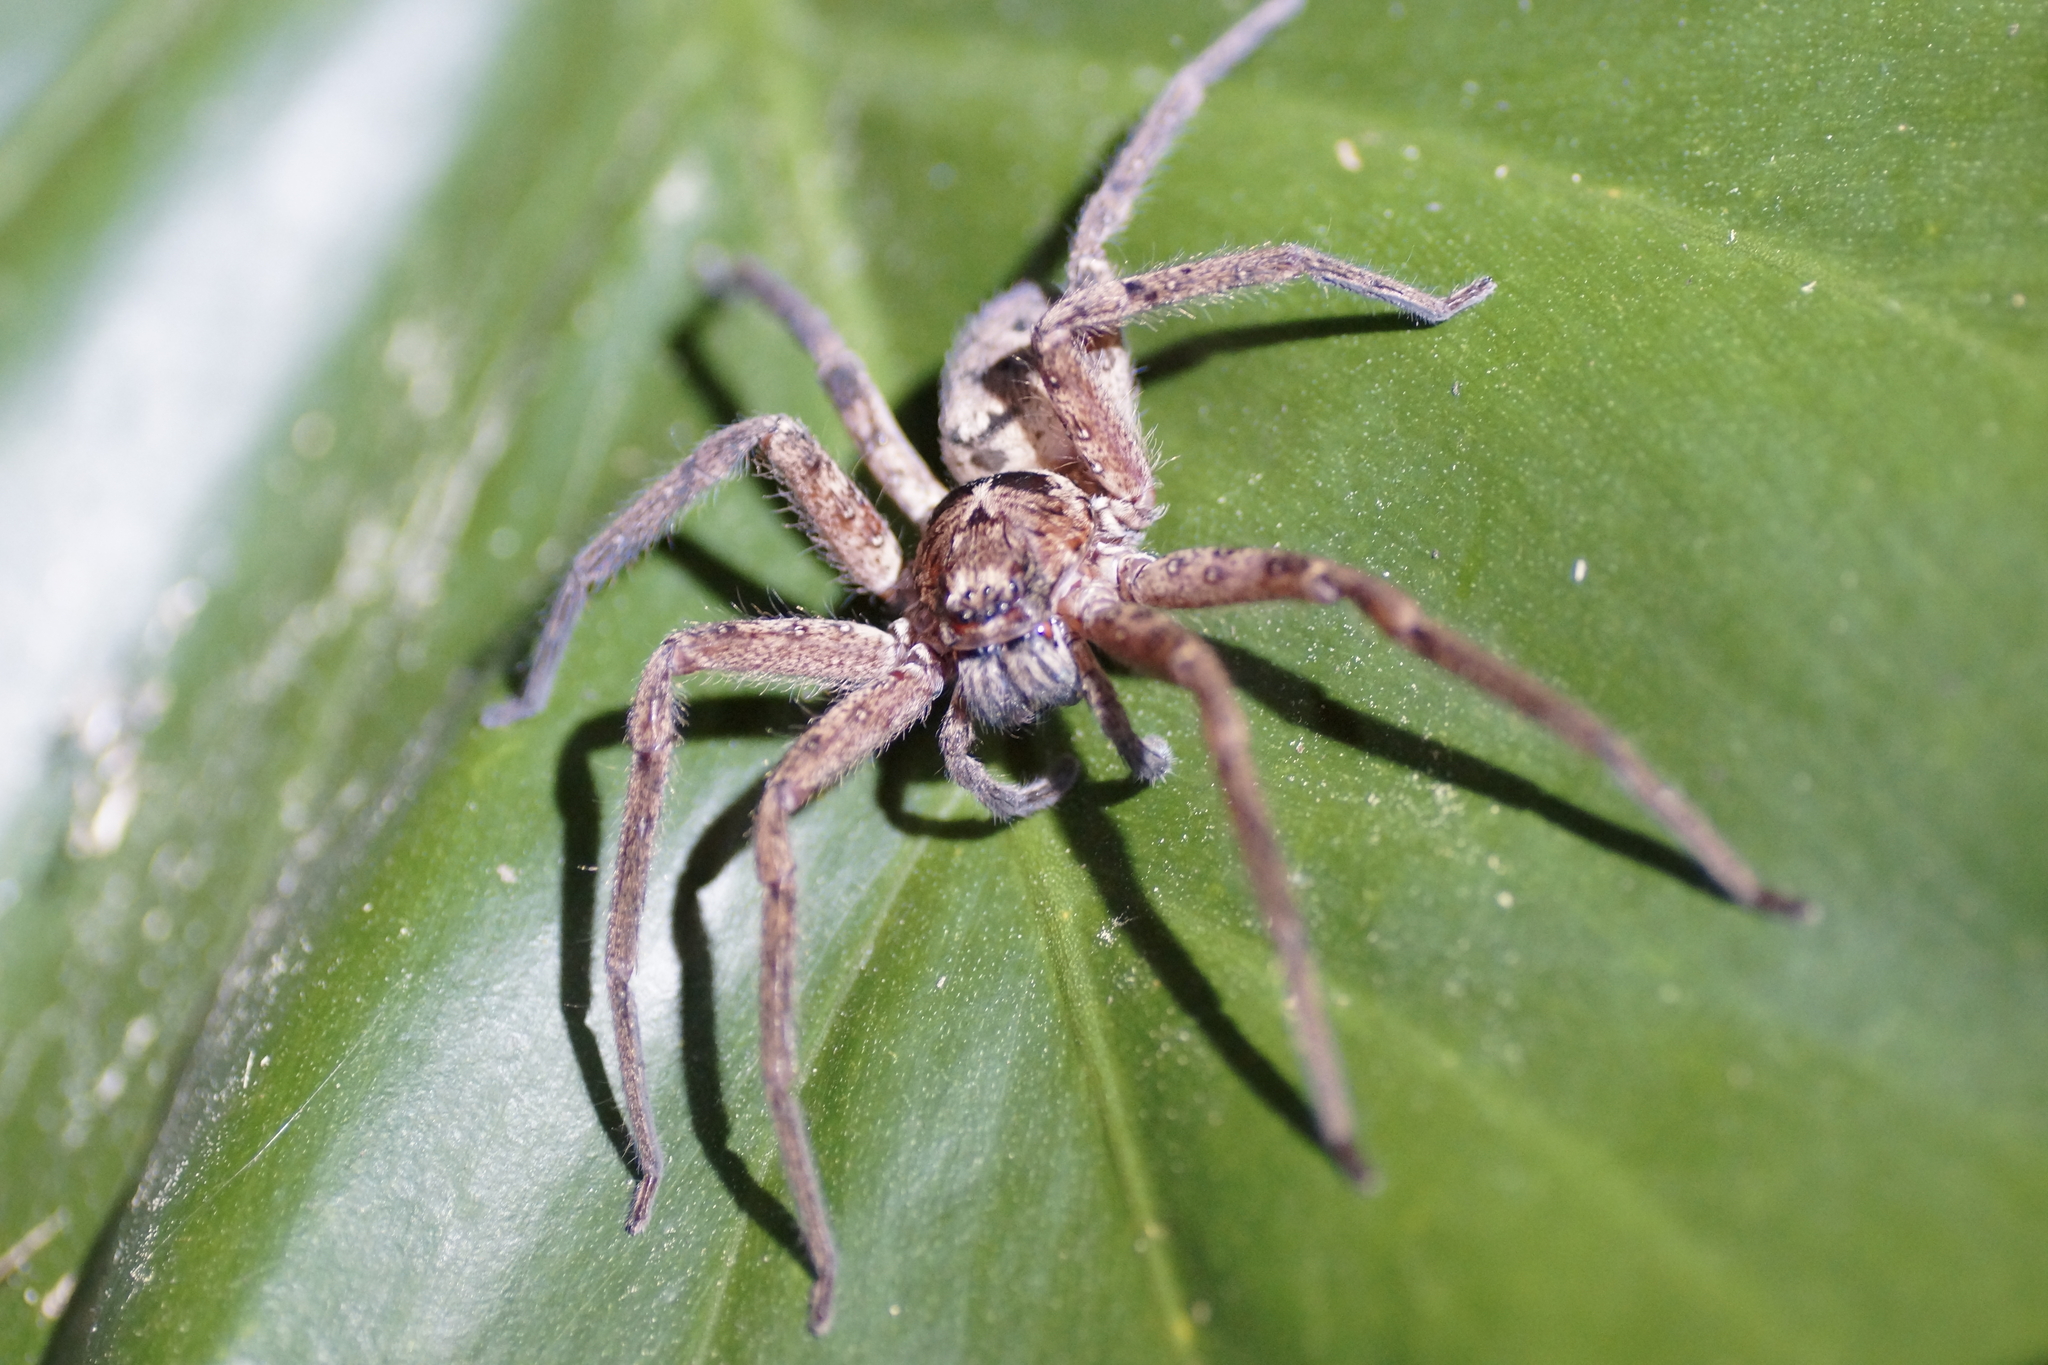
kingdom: Animalia
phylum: Arthropoda
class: Arachnida
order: Araneae
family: Sparassidae
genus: Heteropoda
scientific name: Heteropoda
